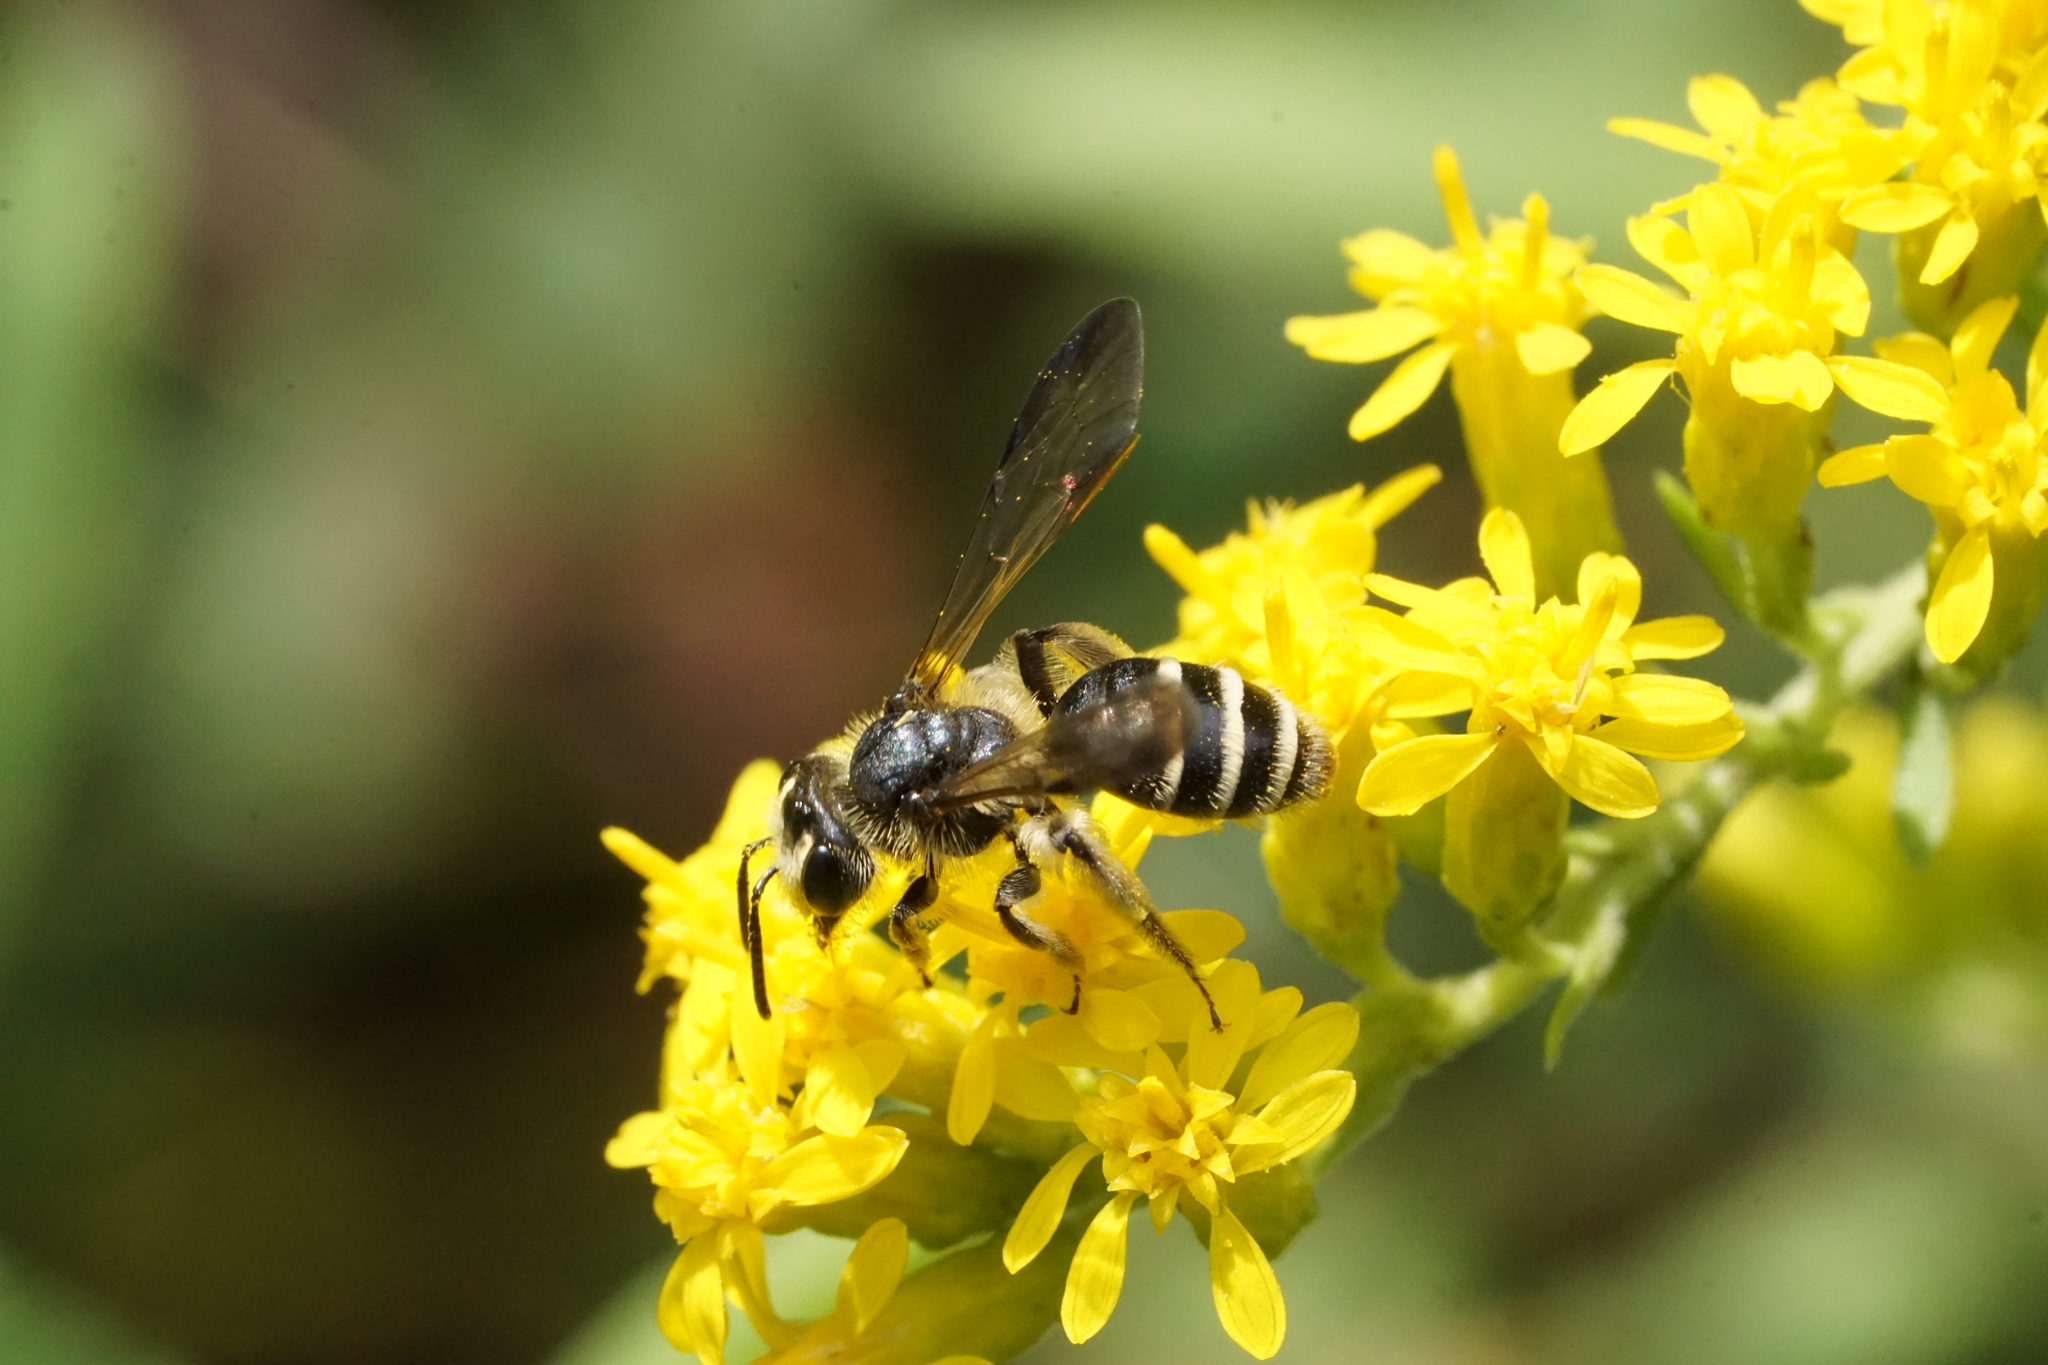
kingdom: Animalia
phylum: Arthropoda
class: Insecta
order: Hymenoptera
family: Andrenidae
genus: Andrena
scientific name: Andrena nubecula
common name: Cloudy-winged mining bee
